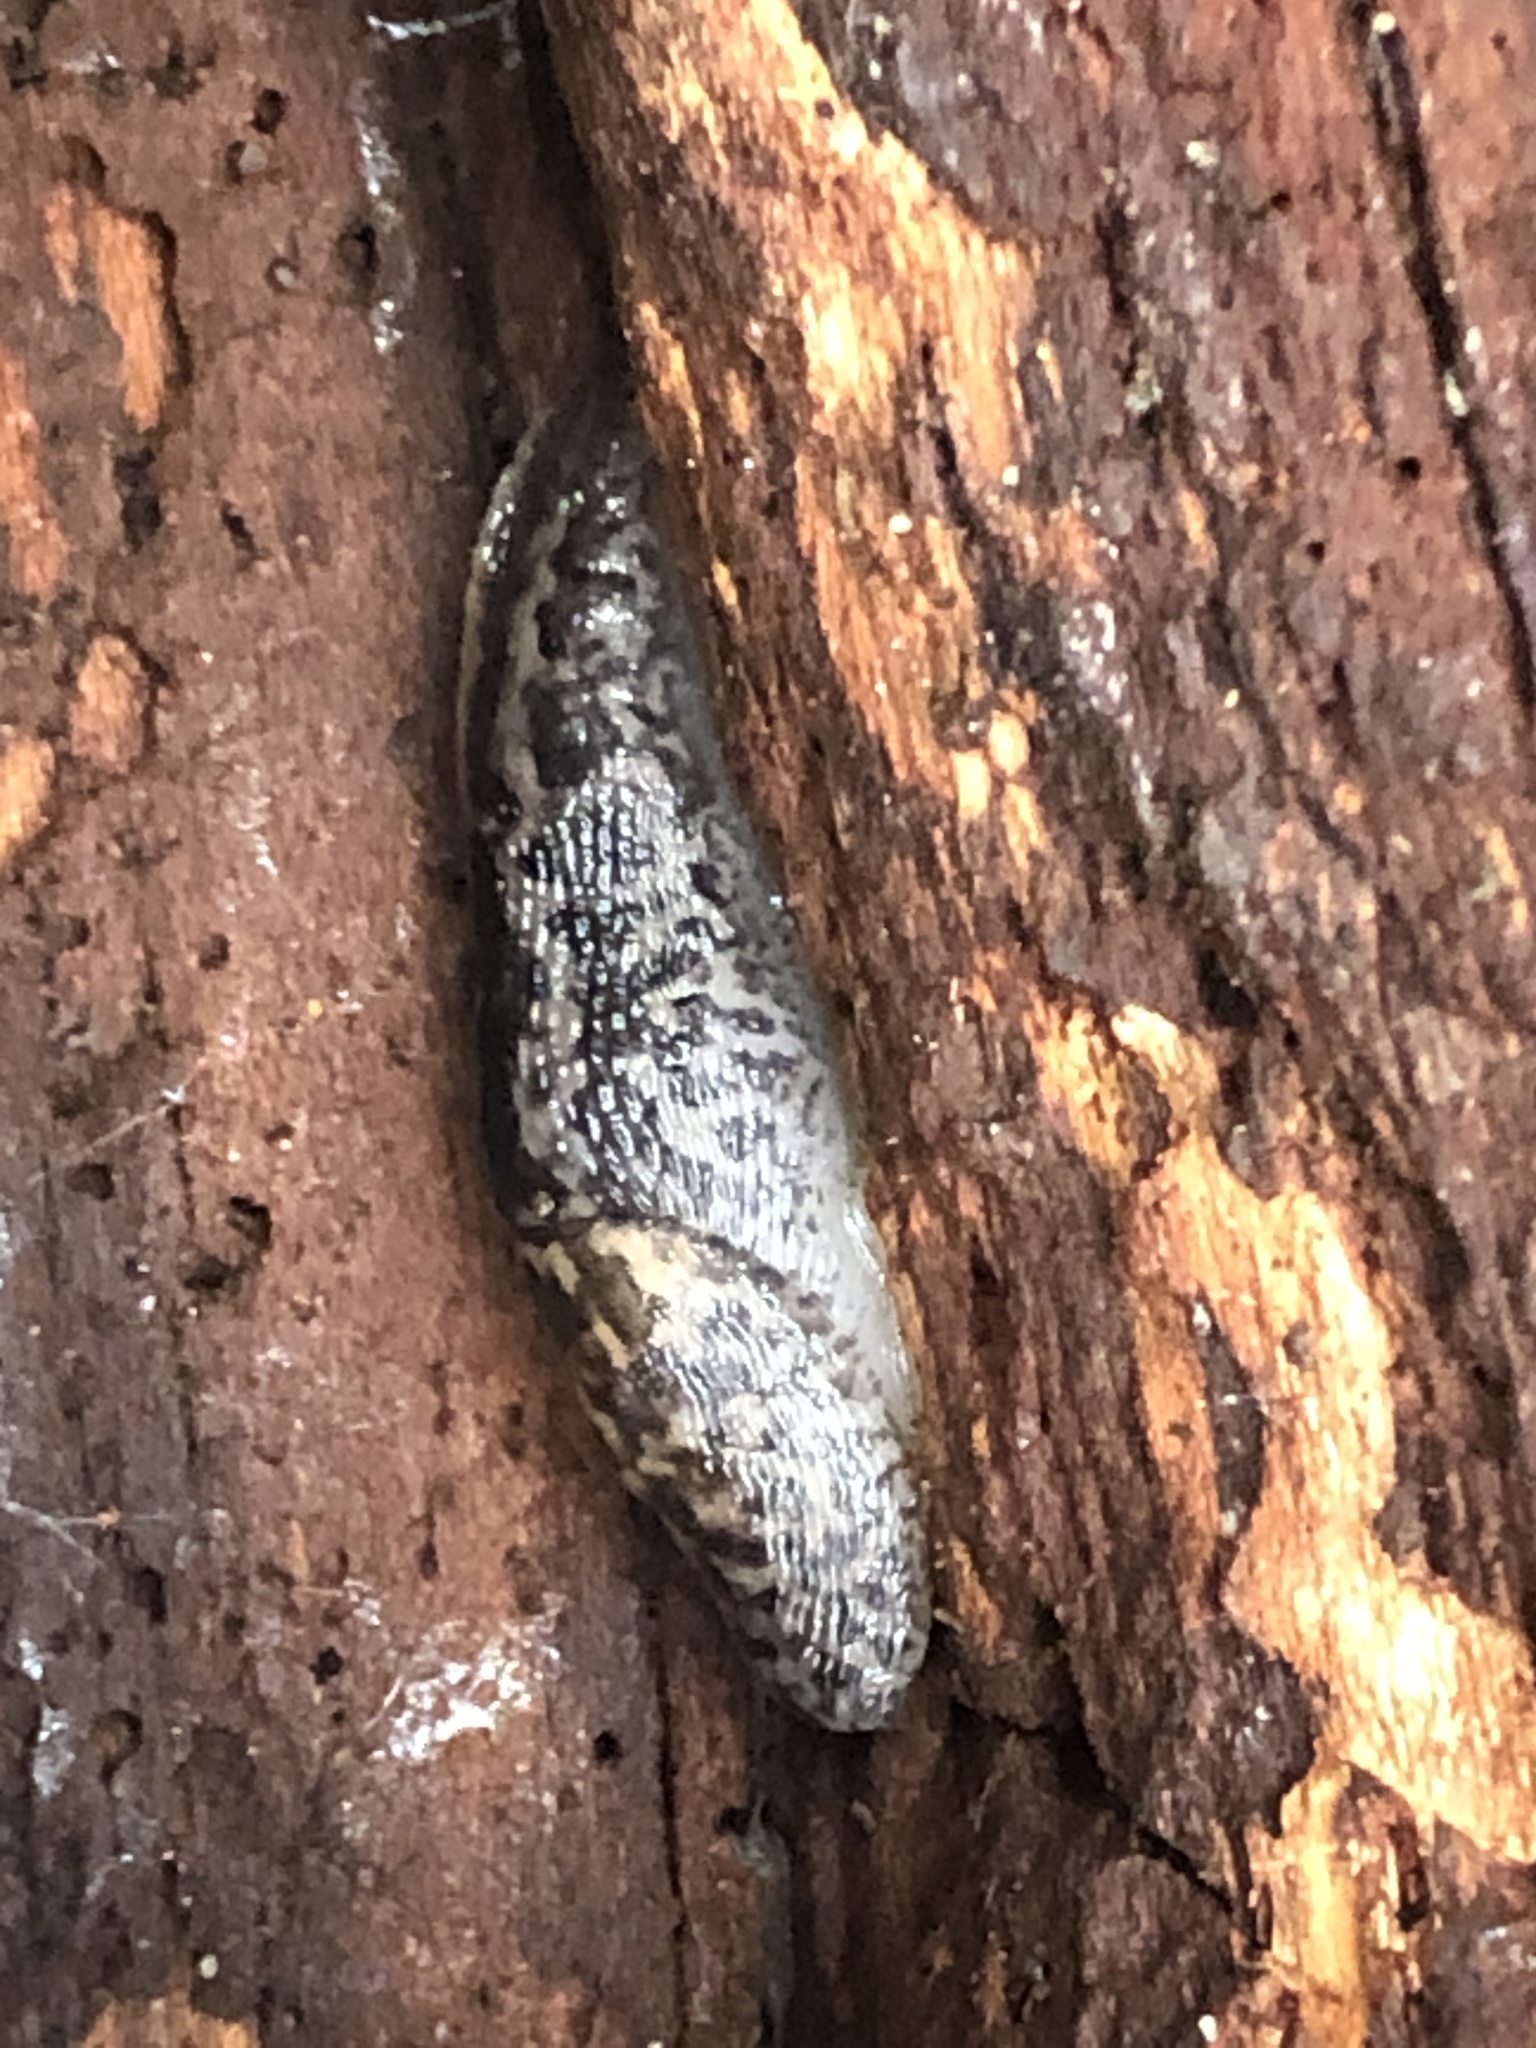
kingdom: Animalia
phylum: Mollusca
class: Gastropoda
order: Stylommatophora
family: Limacidae
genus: Limax
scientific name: Limax maximus
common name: Great grey slug
